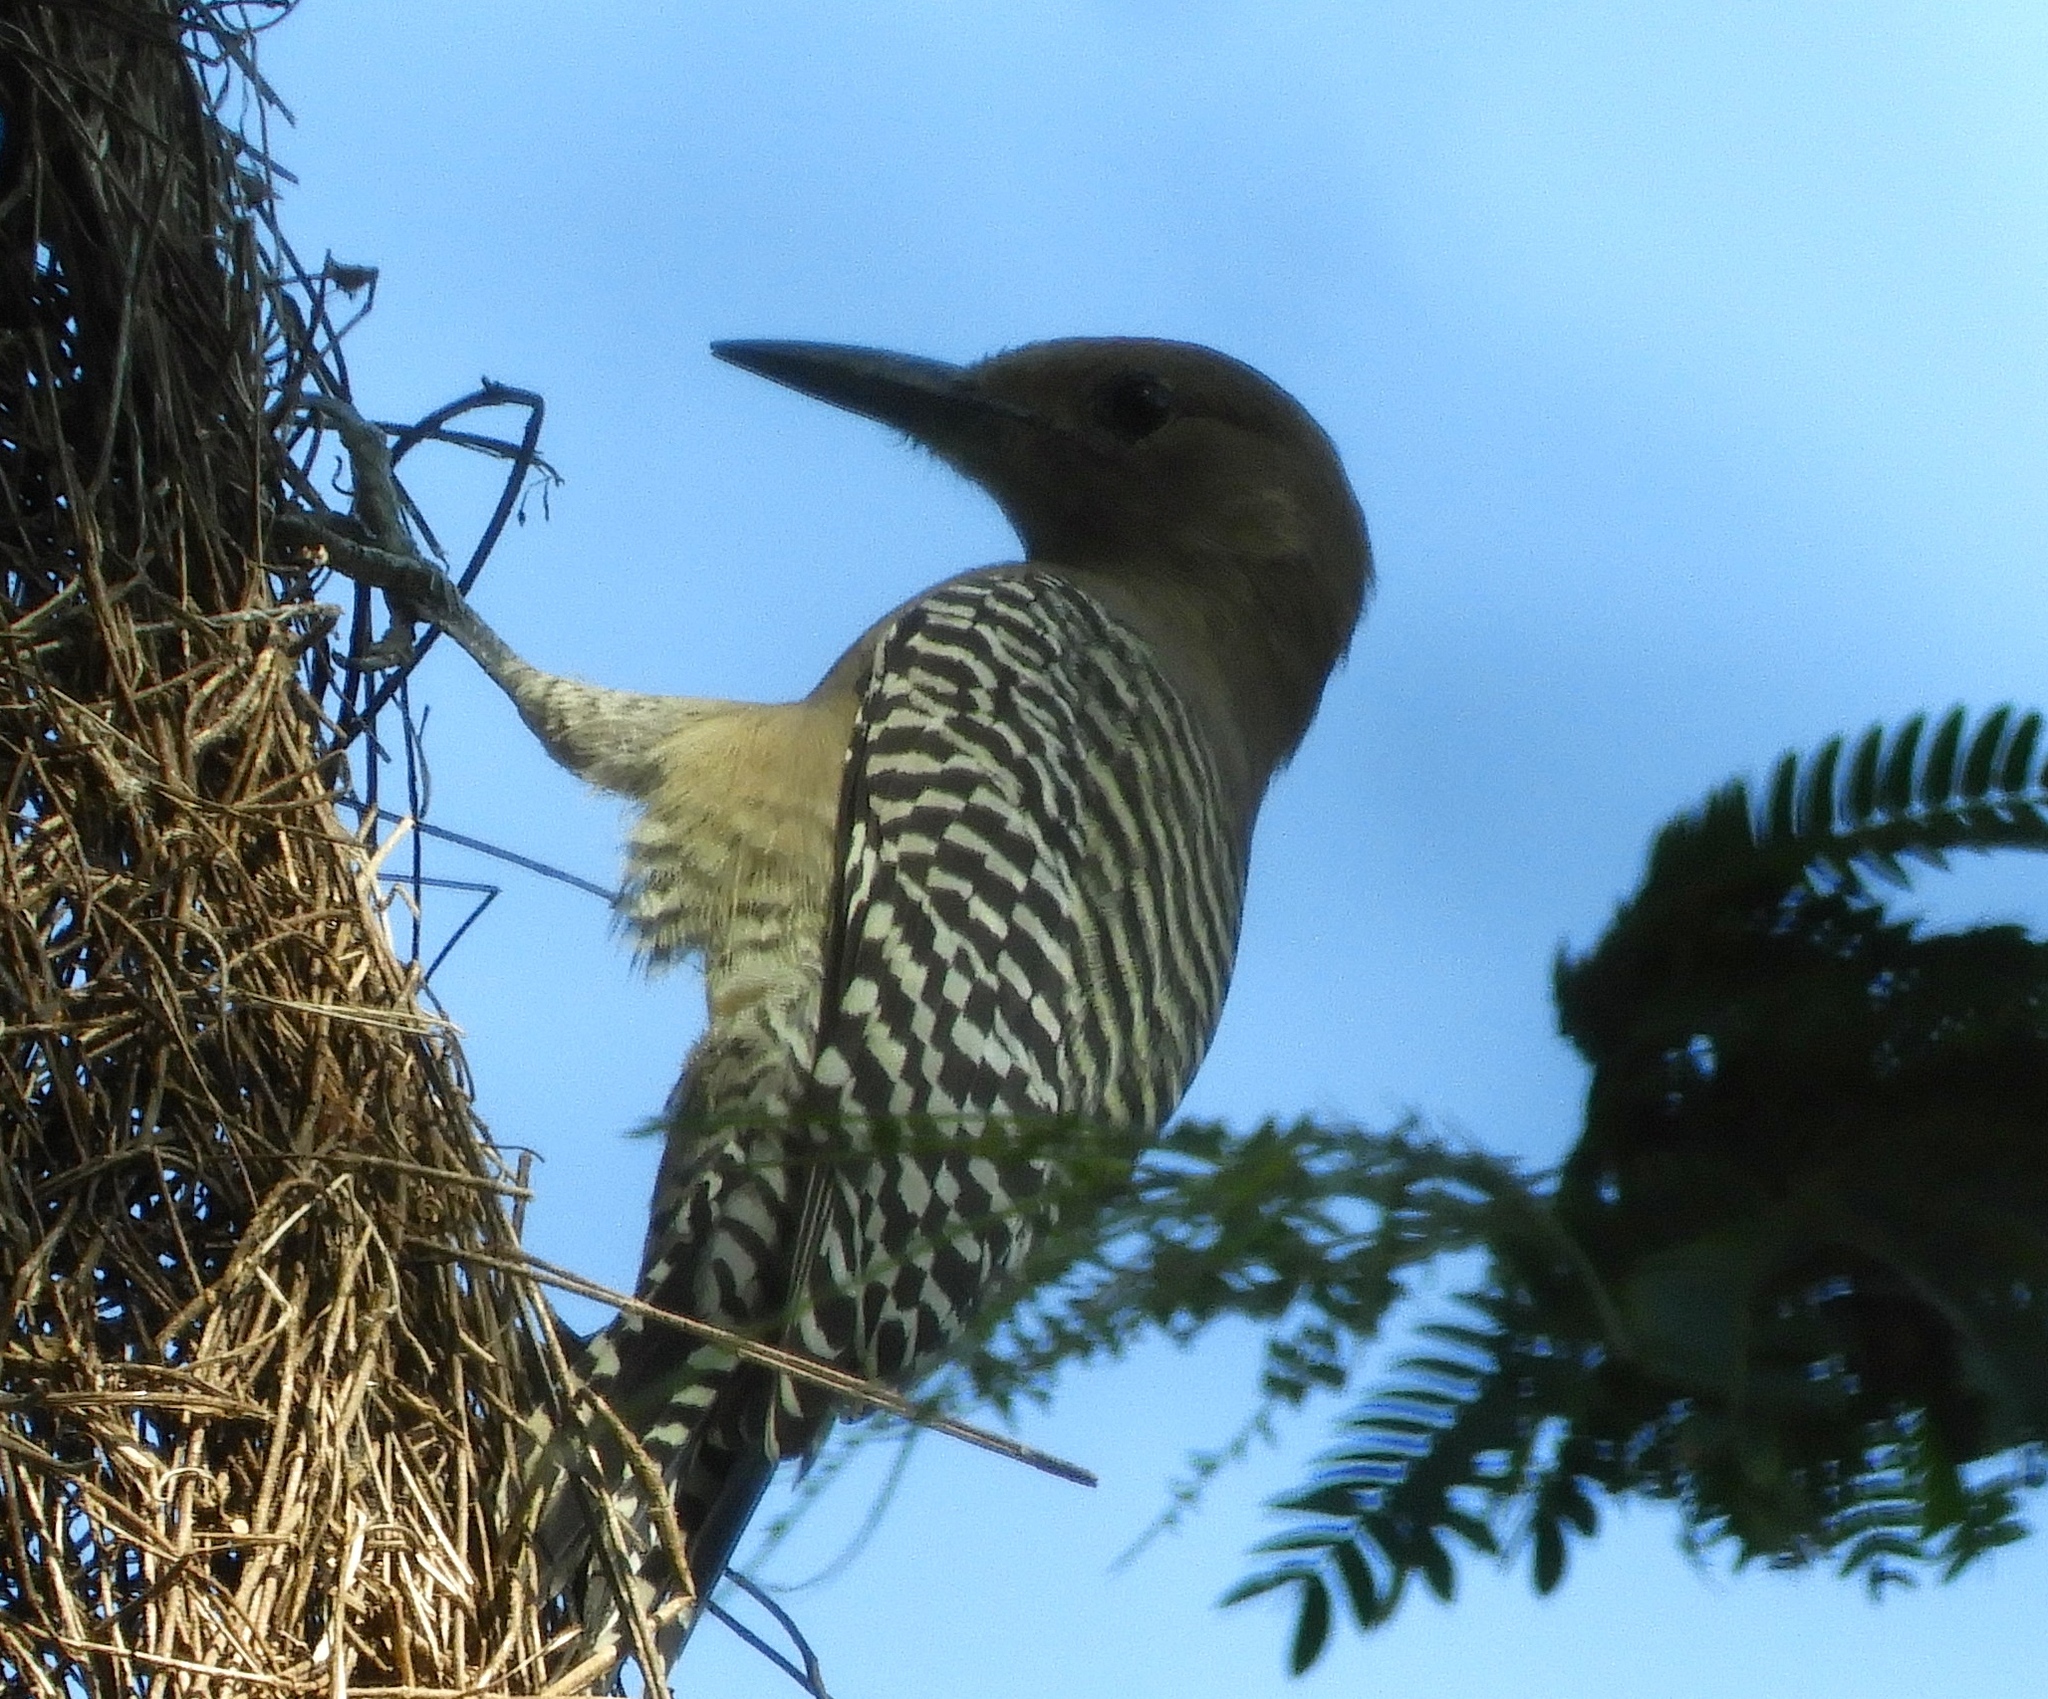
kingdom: Animalia
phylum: Chordata
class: Aves
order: Piciformes
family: Picidae
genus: Melanerpes
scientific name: Melanerpes uropygialis
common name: Gila woodpecker
